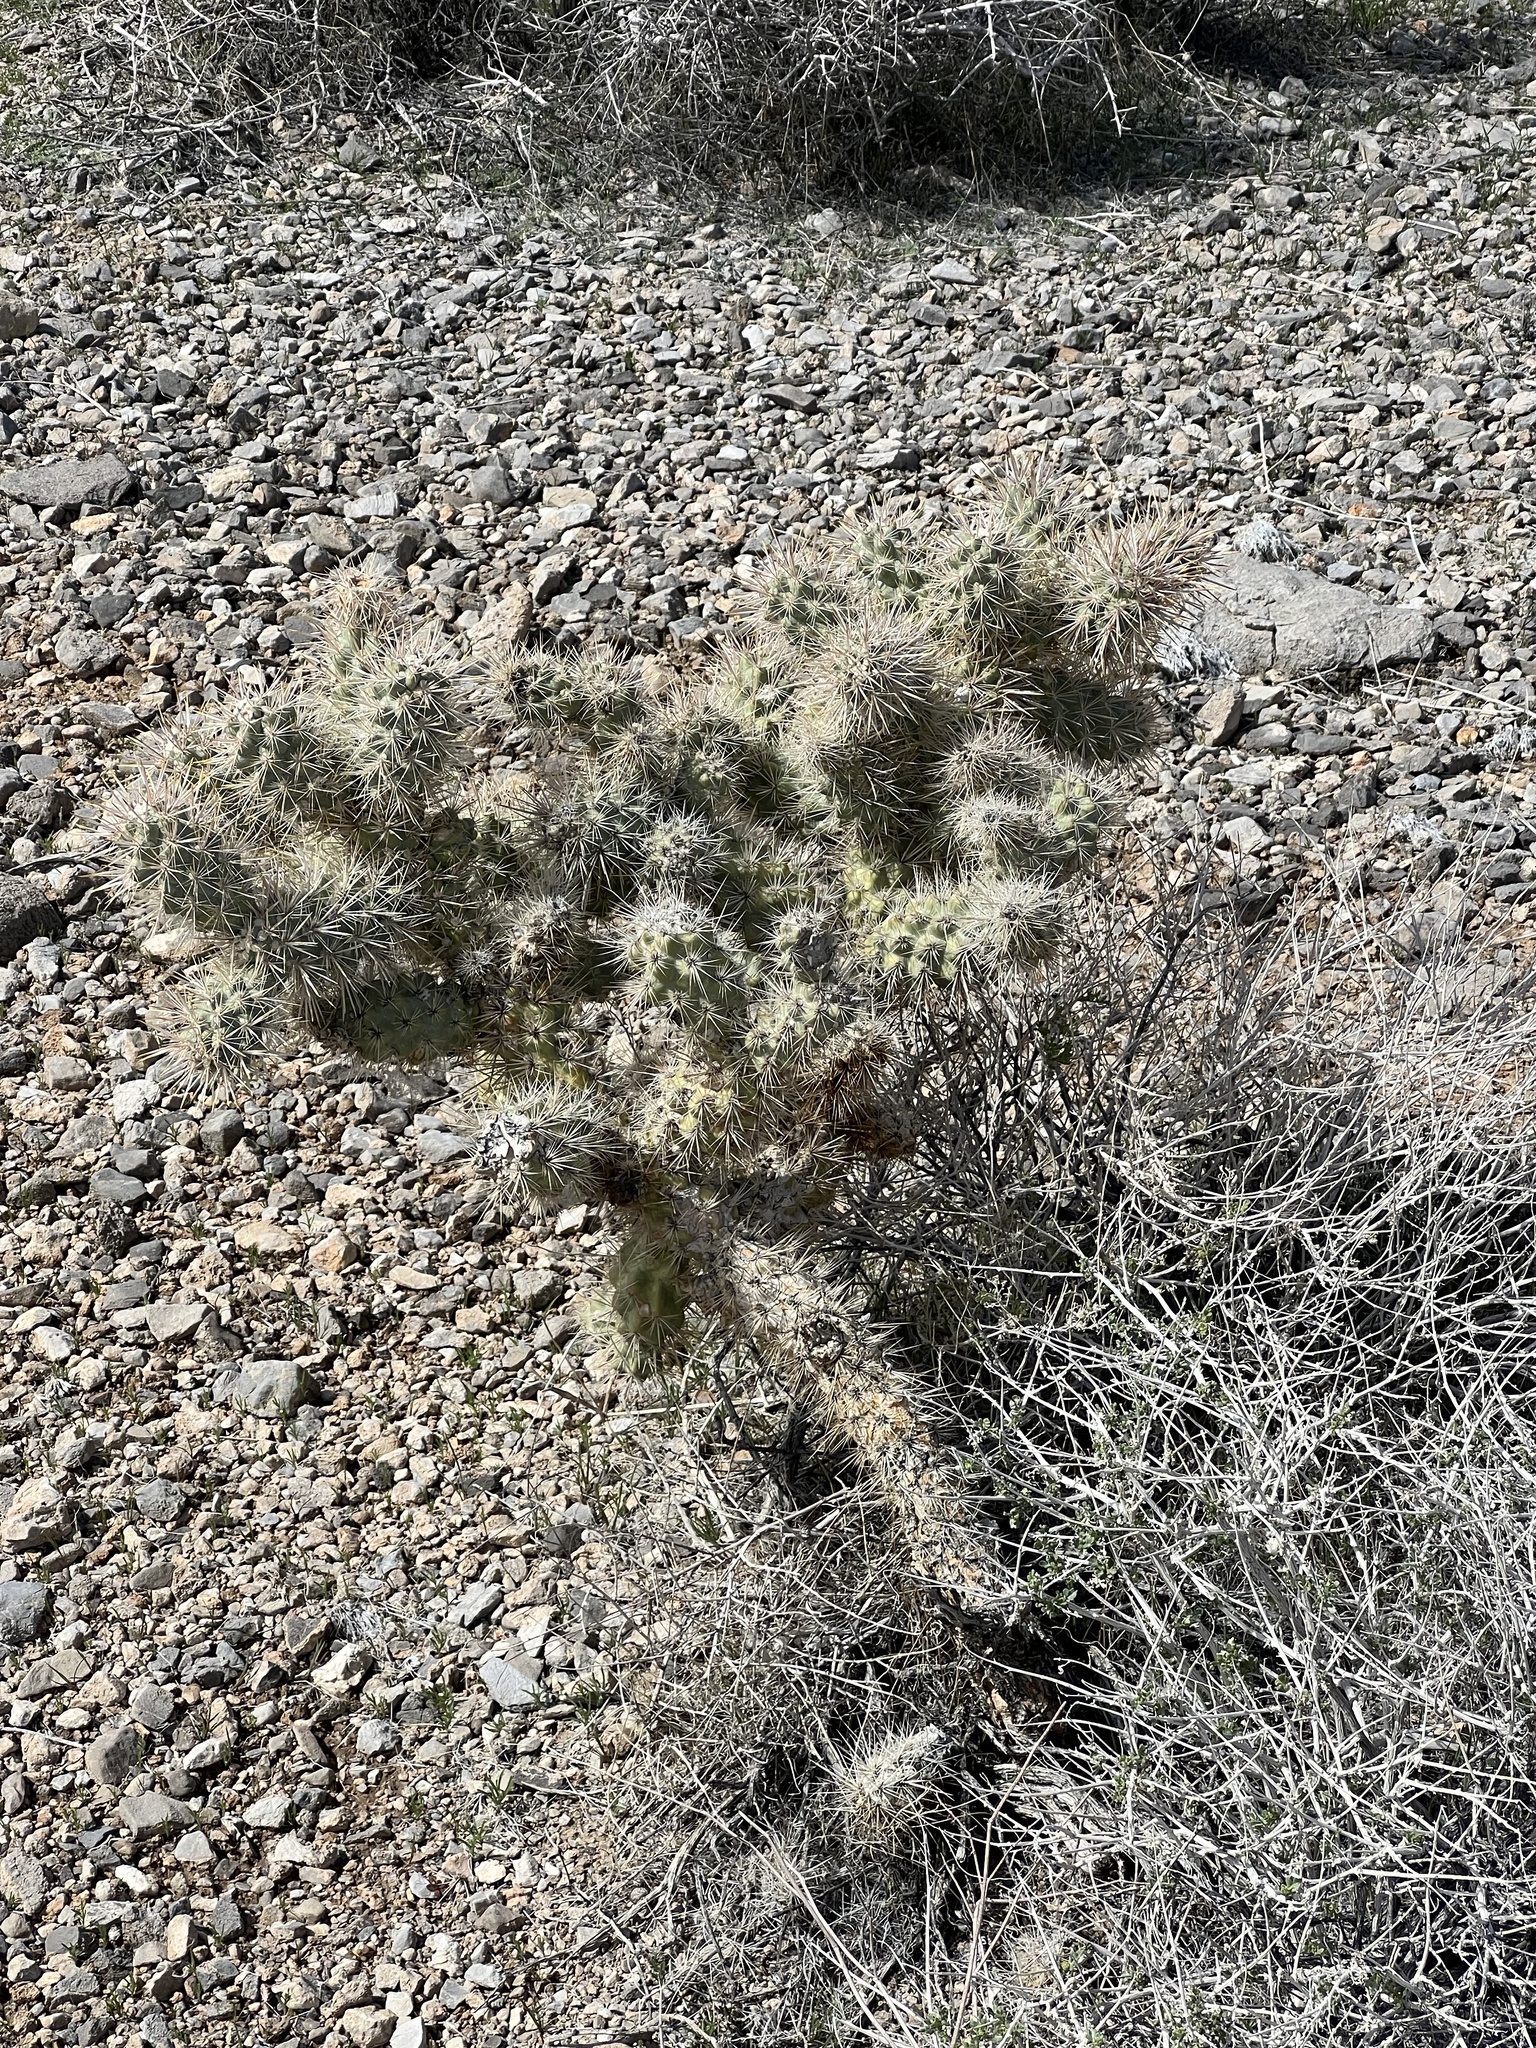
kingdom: Plantae
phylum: Tracheophyta
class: Magnoliopsida
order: Caryophyllales
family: Cactaceae
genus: Cylindropuntia
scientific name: Cylindropuntia echinocarpa
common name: Ground cholla
